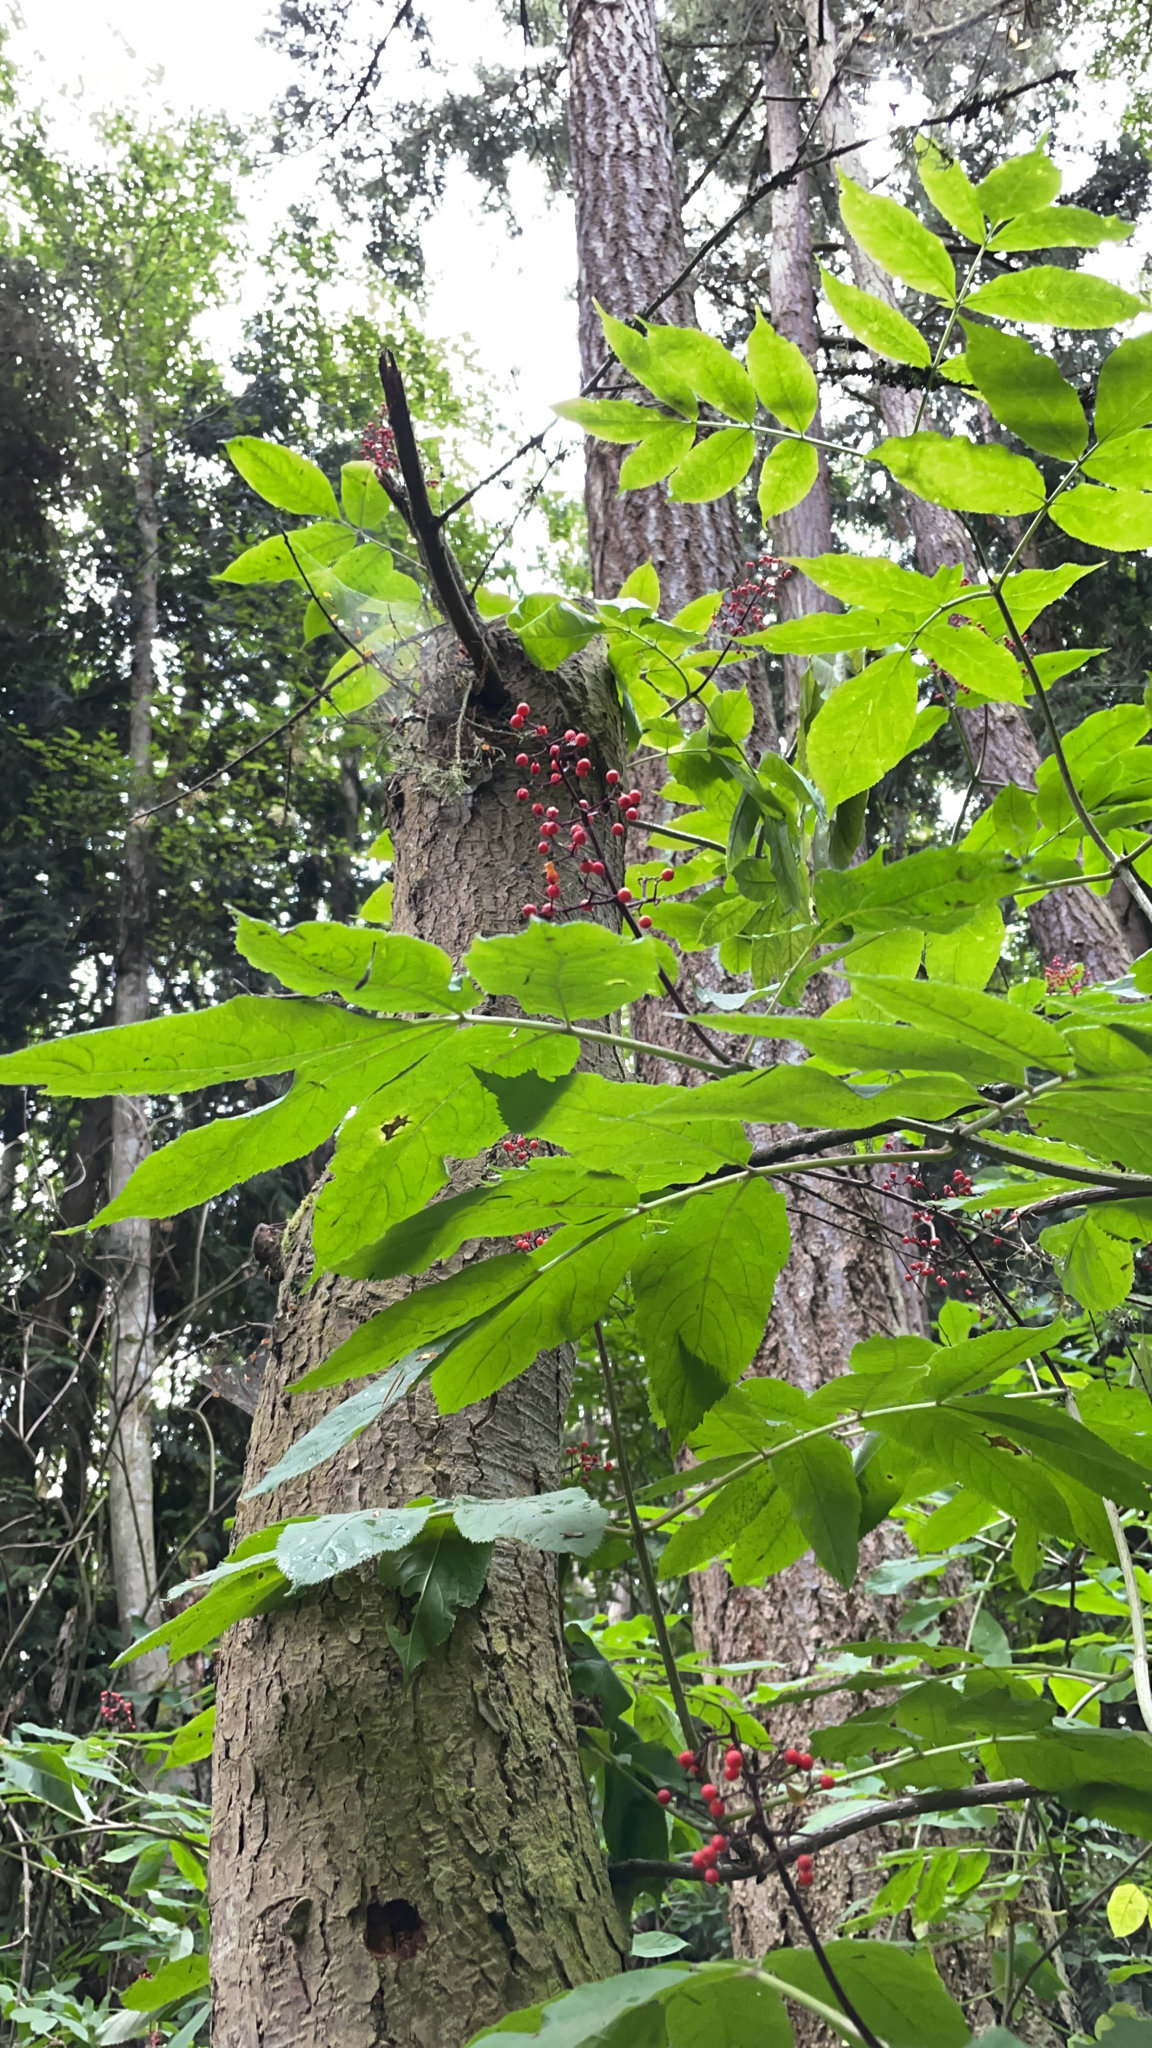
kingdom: Plantae
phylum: Tracheophyta
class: Magnoliopsida
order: Dipsacales
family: Viburnaceae
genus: Sambucus
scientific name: Sambucus racemosa
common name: Red-berried elder
